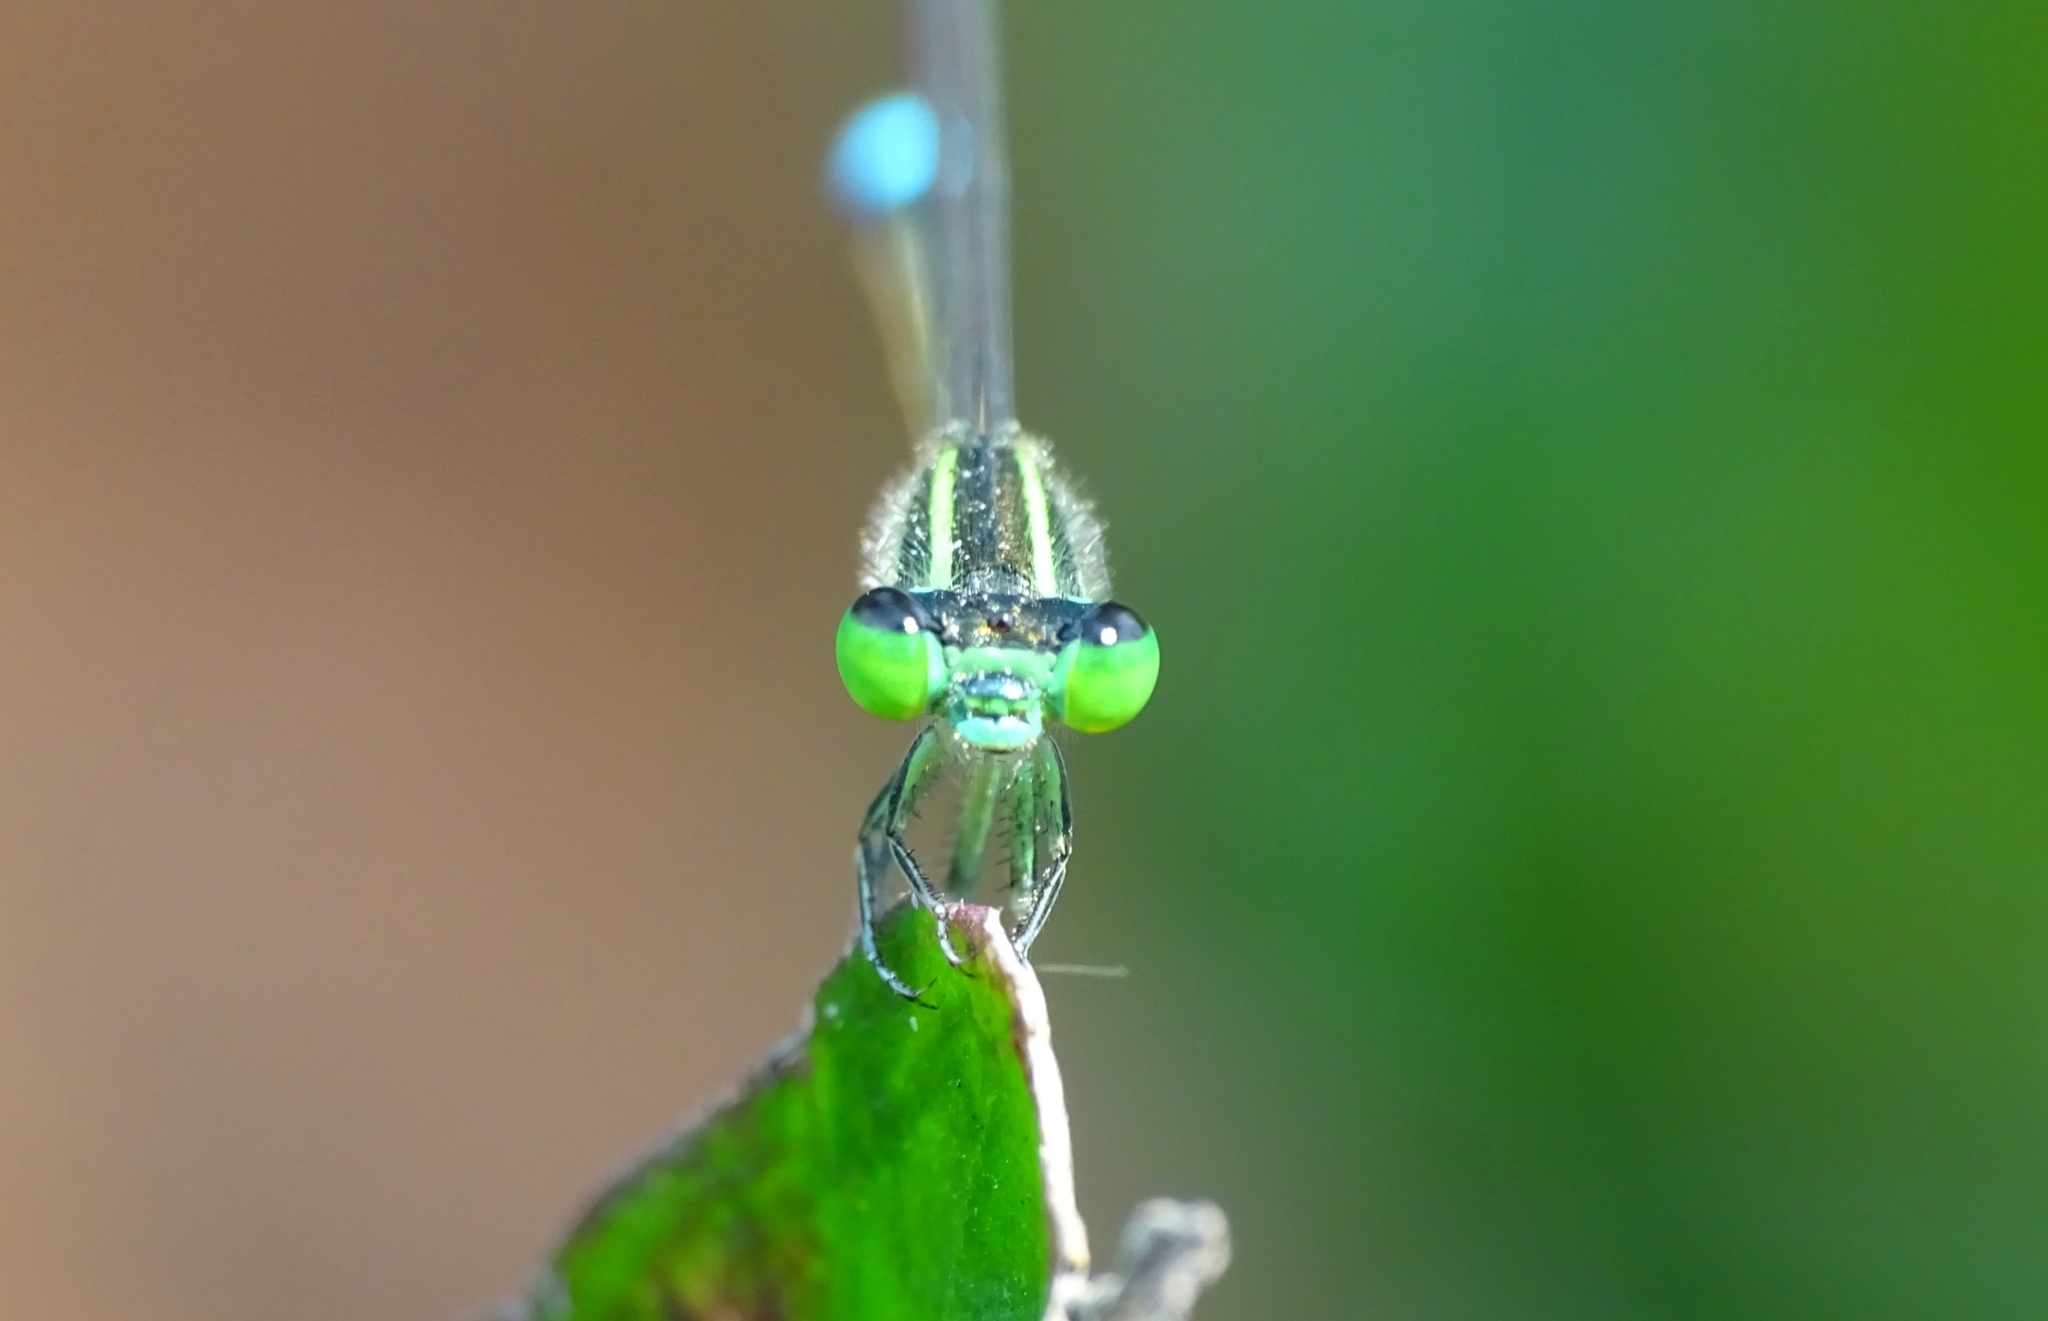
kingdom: Animalia
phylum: Arthropoda
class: Insecta
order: Odonata
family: Coenagrionidae
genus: Ischnura
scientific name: Ischnura senegalensis
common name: Tropical bluetail
